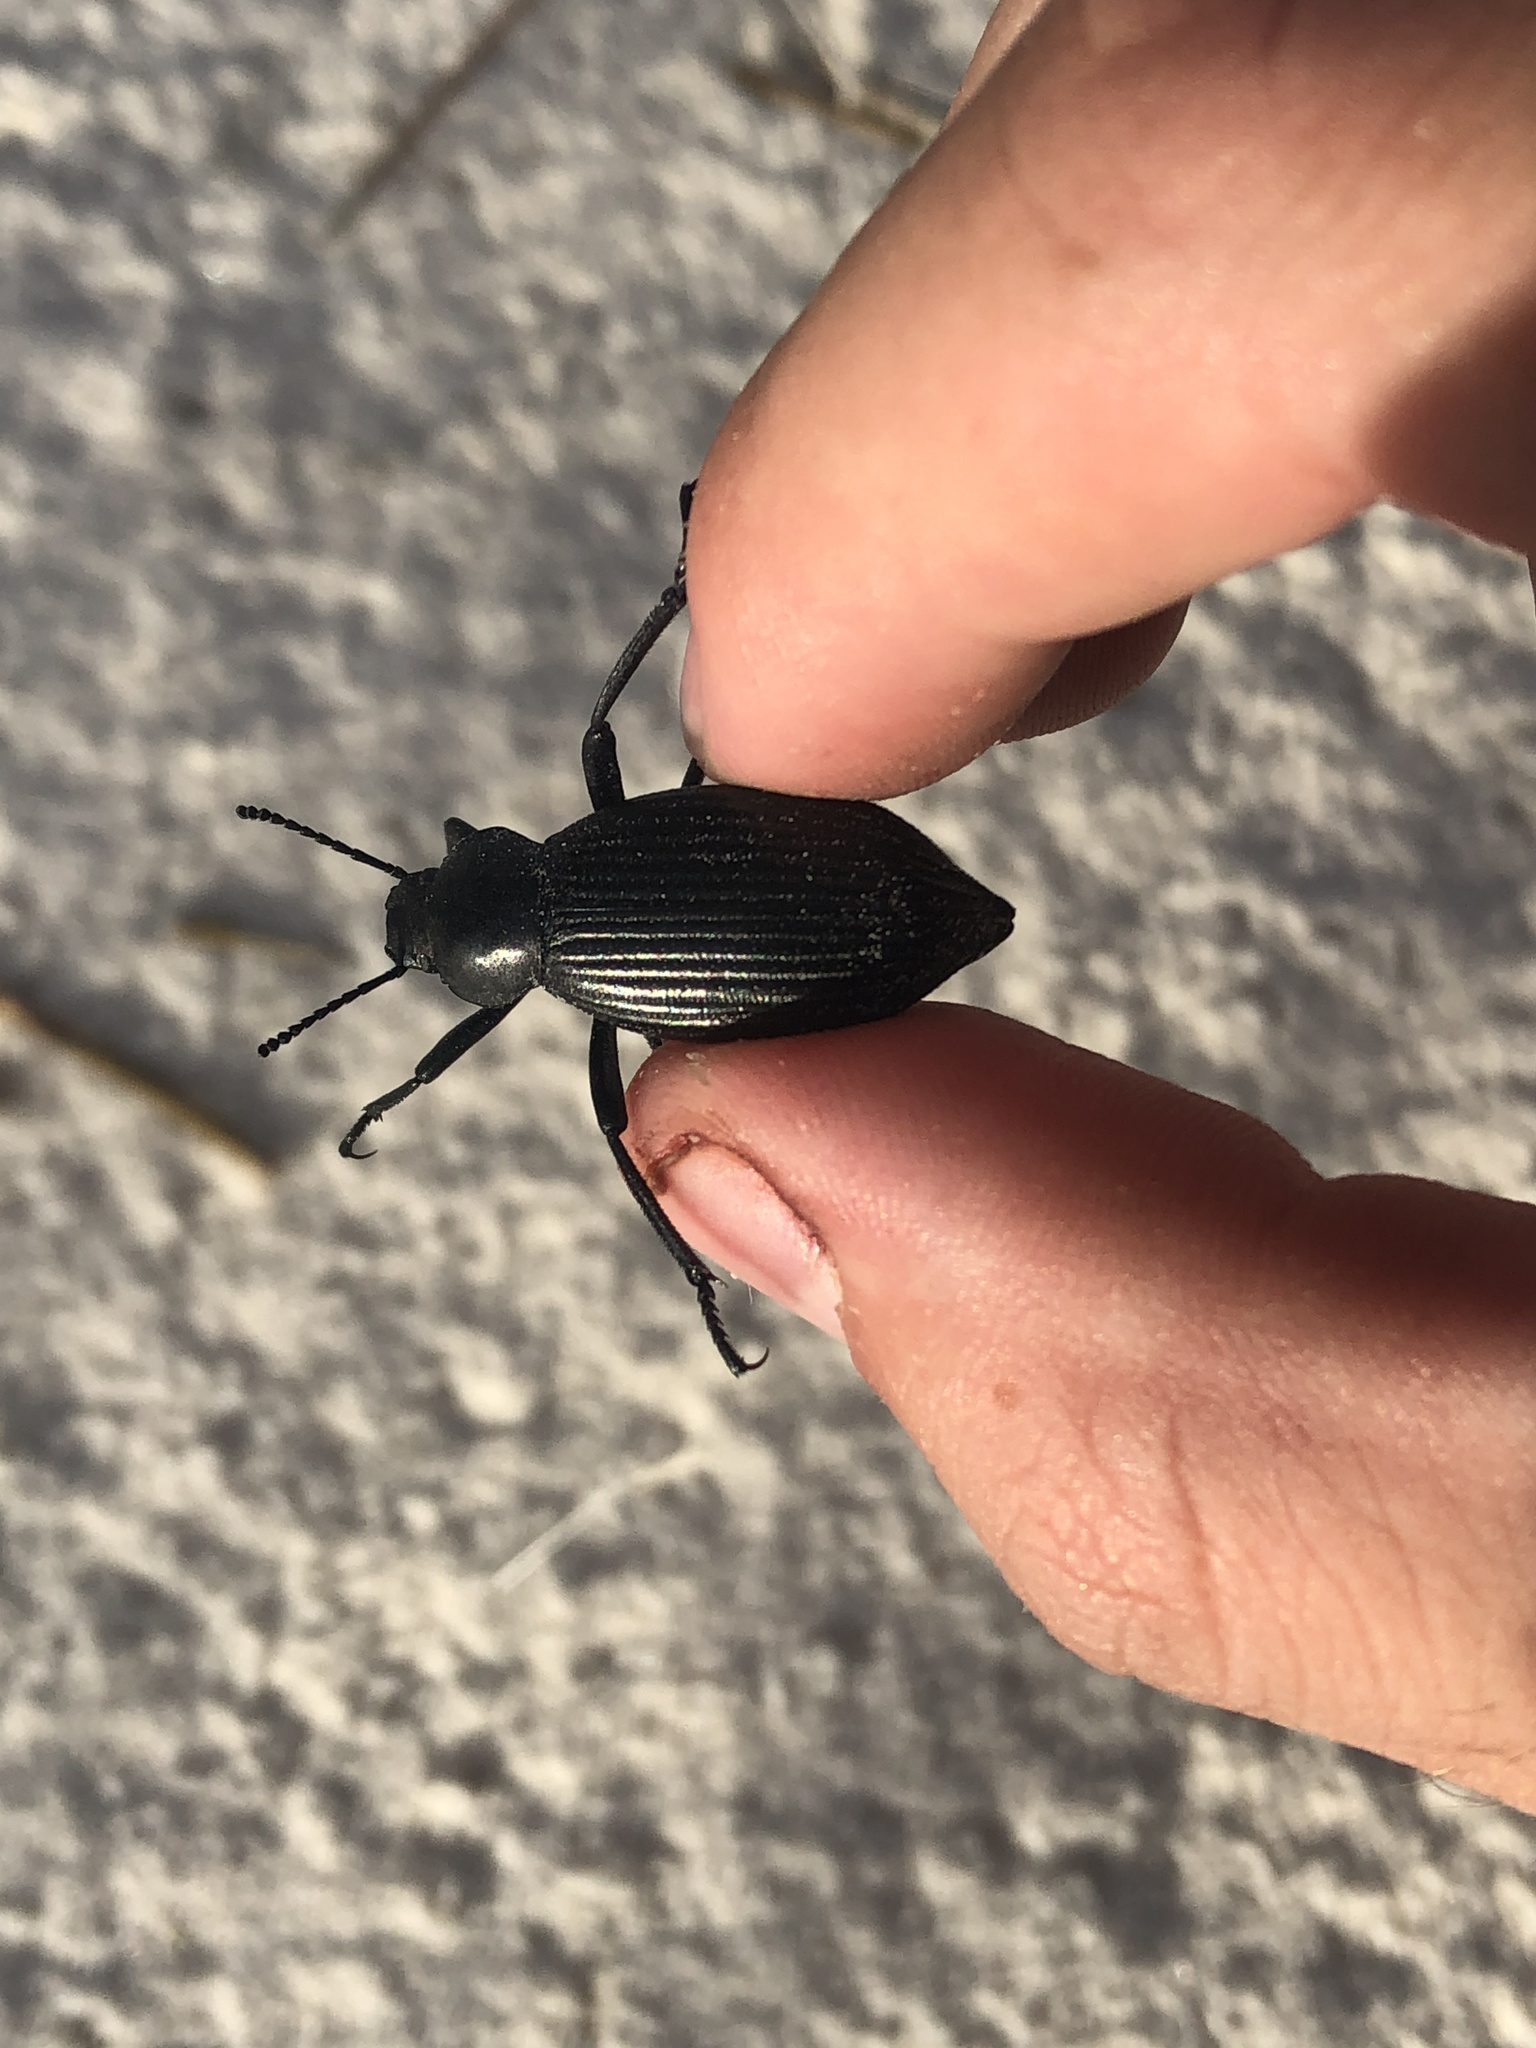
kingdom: Animalia
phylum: Arthropoda
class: Insecta
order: Coleoptera
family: Tenebrionidae
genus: Eleodes
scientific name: Eleodes hispilabris
